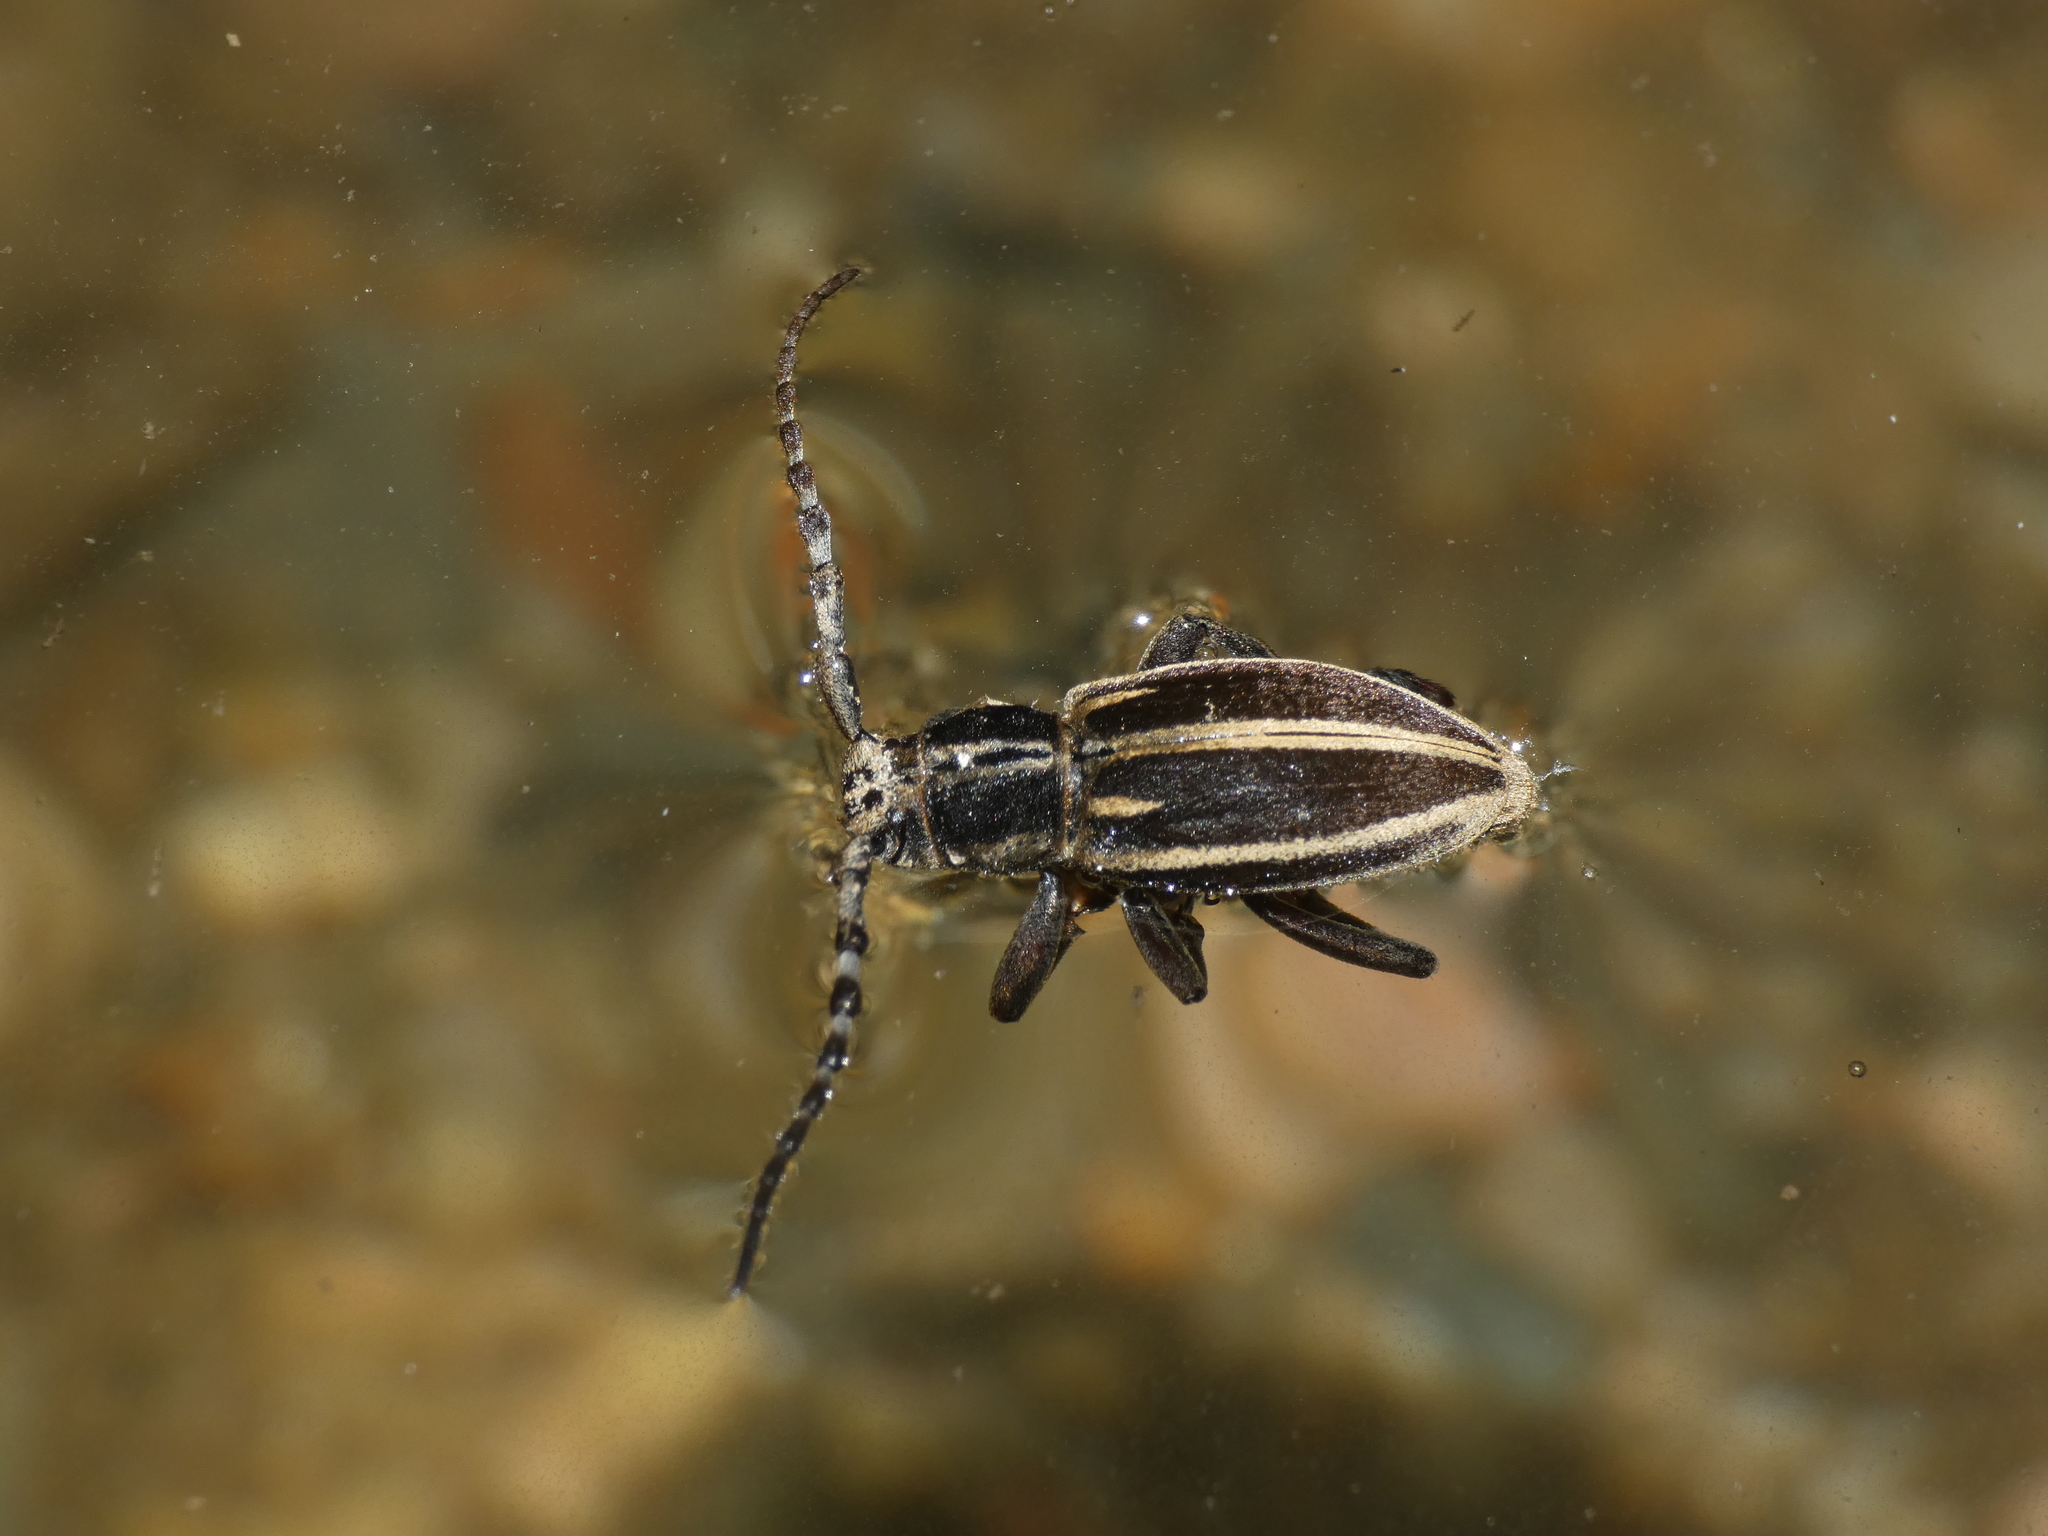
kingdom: Animalia
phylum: Arthropoda
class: Insecta
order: Coleoptera
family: Cerambycidae
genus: Iberodorcadion
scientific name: Iberodorcadion molitor
